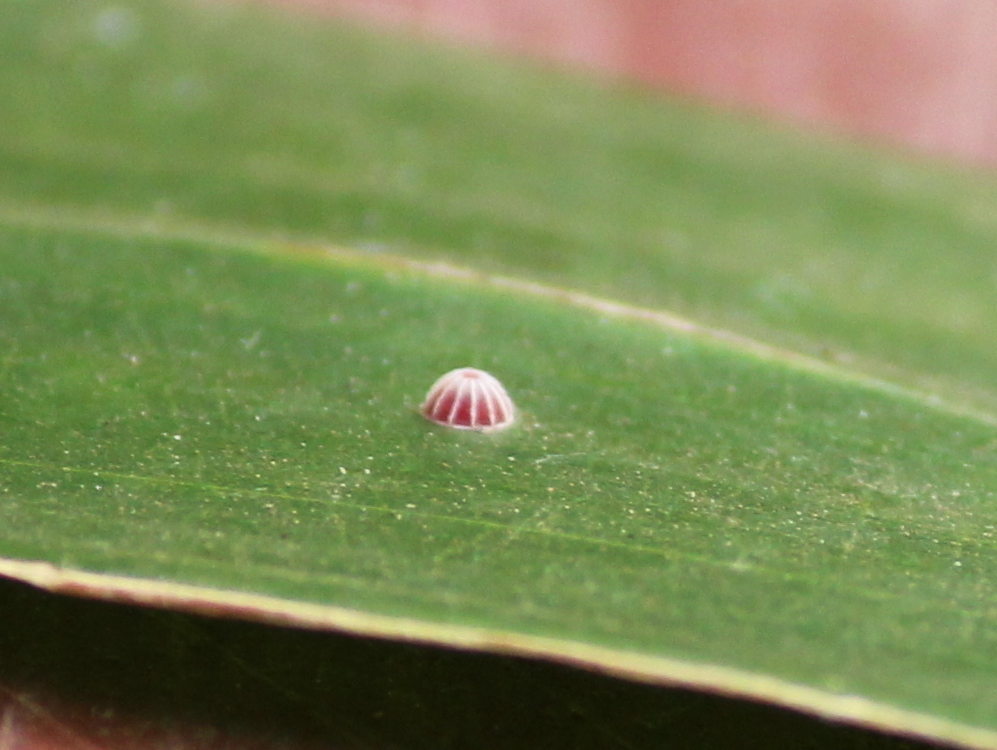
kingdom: Animalia
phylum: Arthropoda
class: Insecta
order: Lepidoptera
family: Hesperiidae
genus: Suastus
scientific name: Suastus gremius
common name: Indian palm bob
